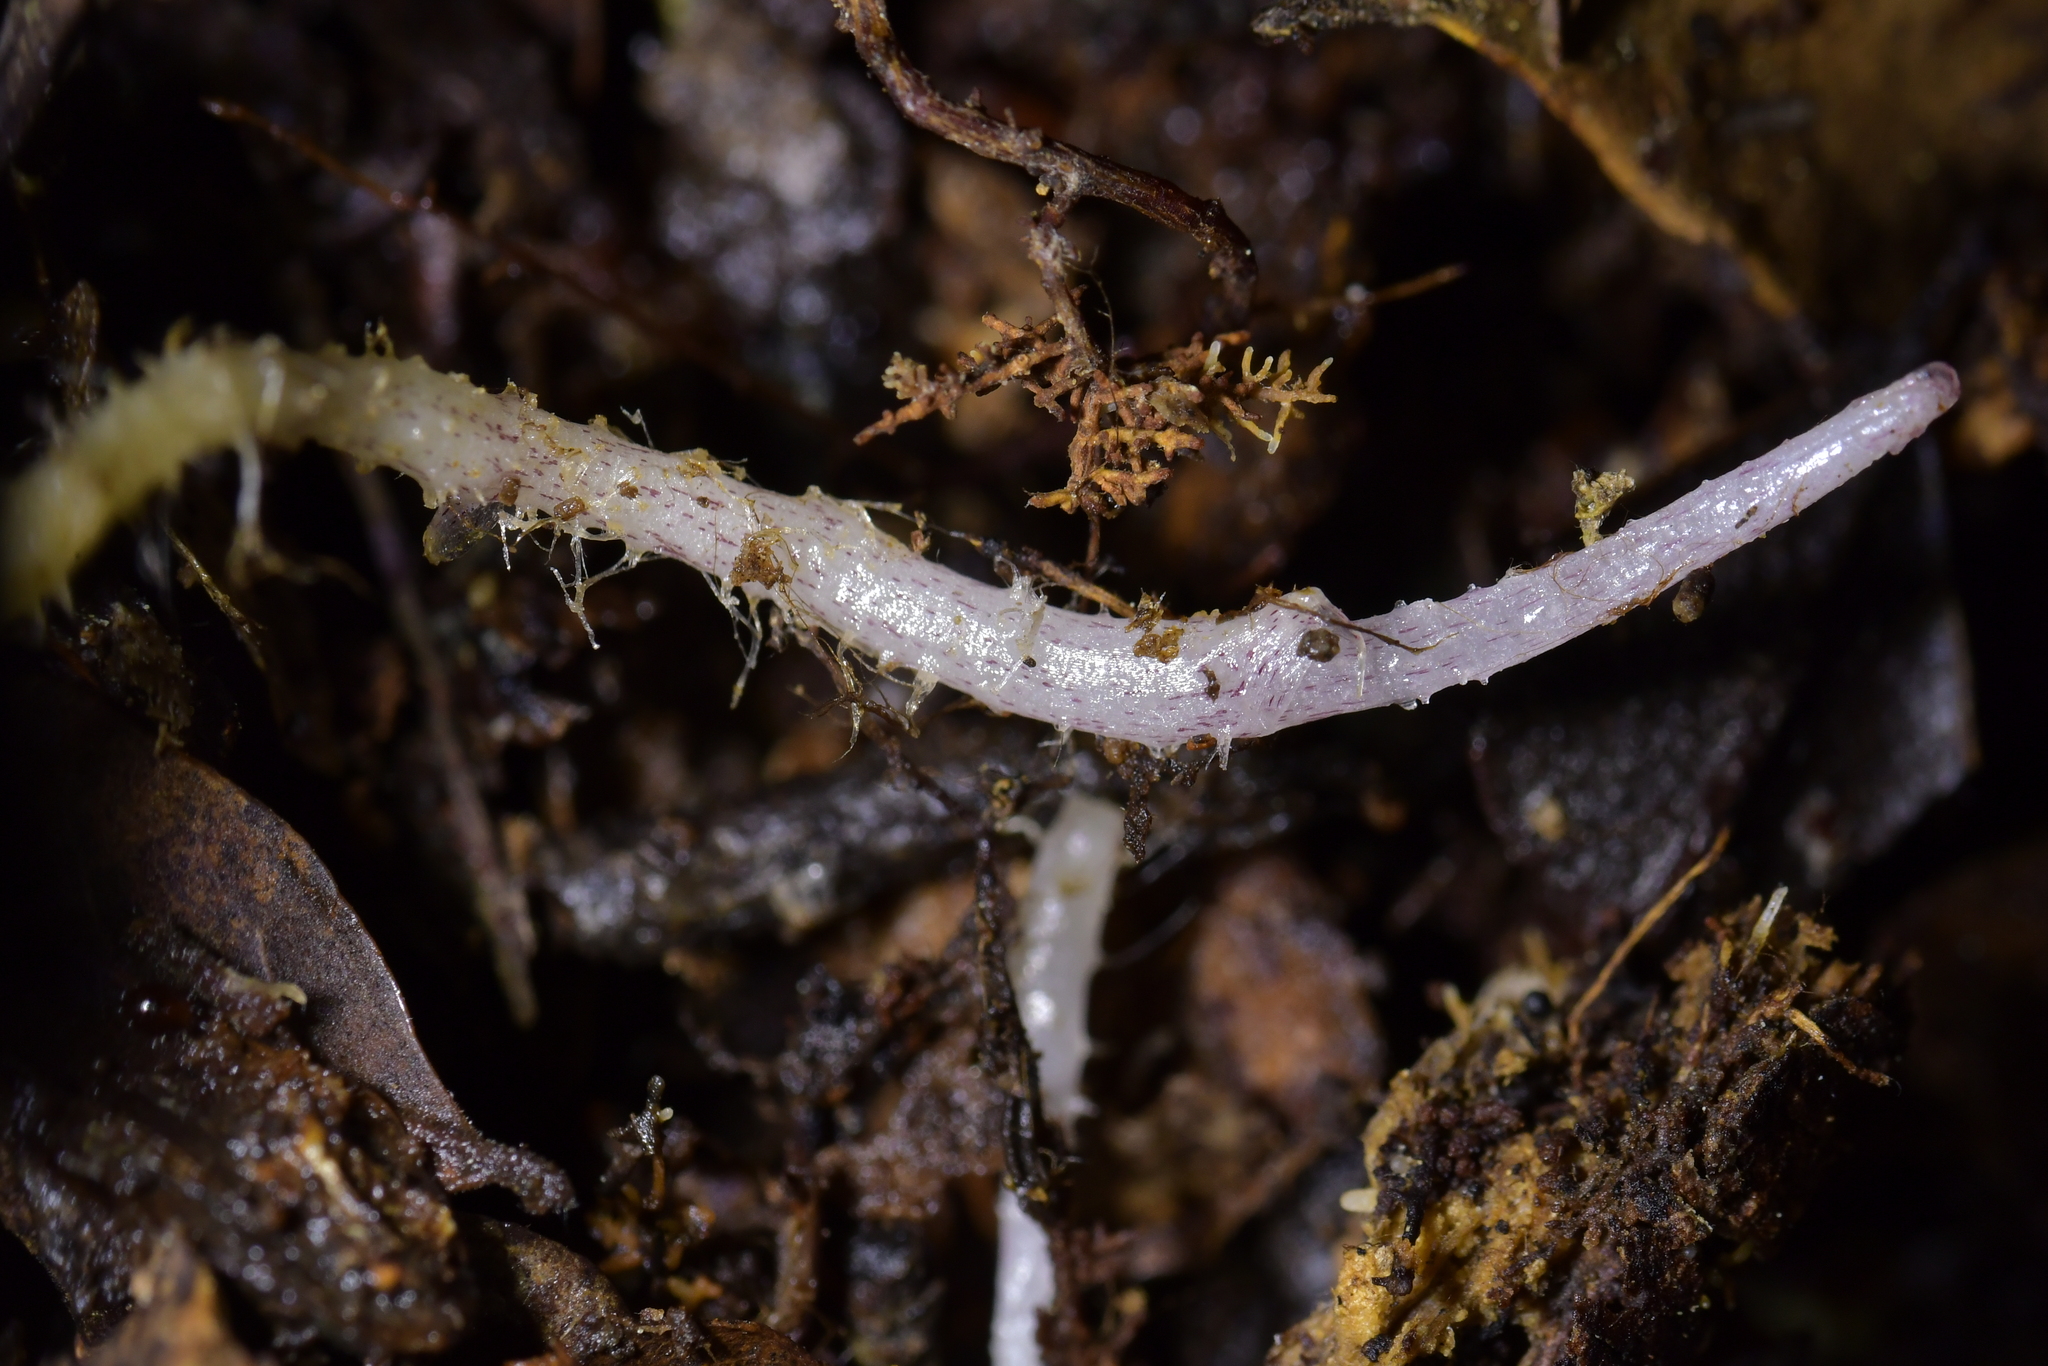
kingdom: Plantae
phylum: Tracheophyta
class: Liliopsida
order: Asparagales
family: Orchidaceae
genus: Corybas
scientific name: Corybas cryptanthus
